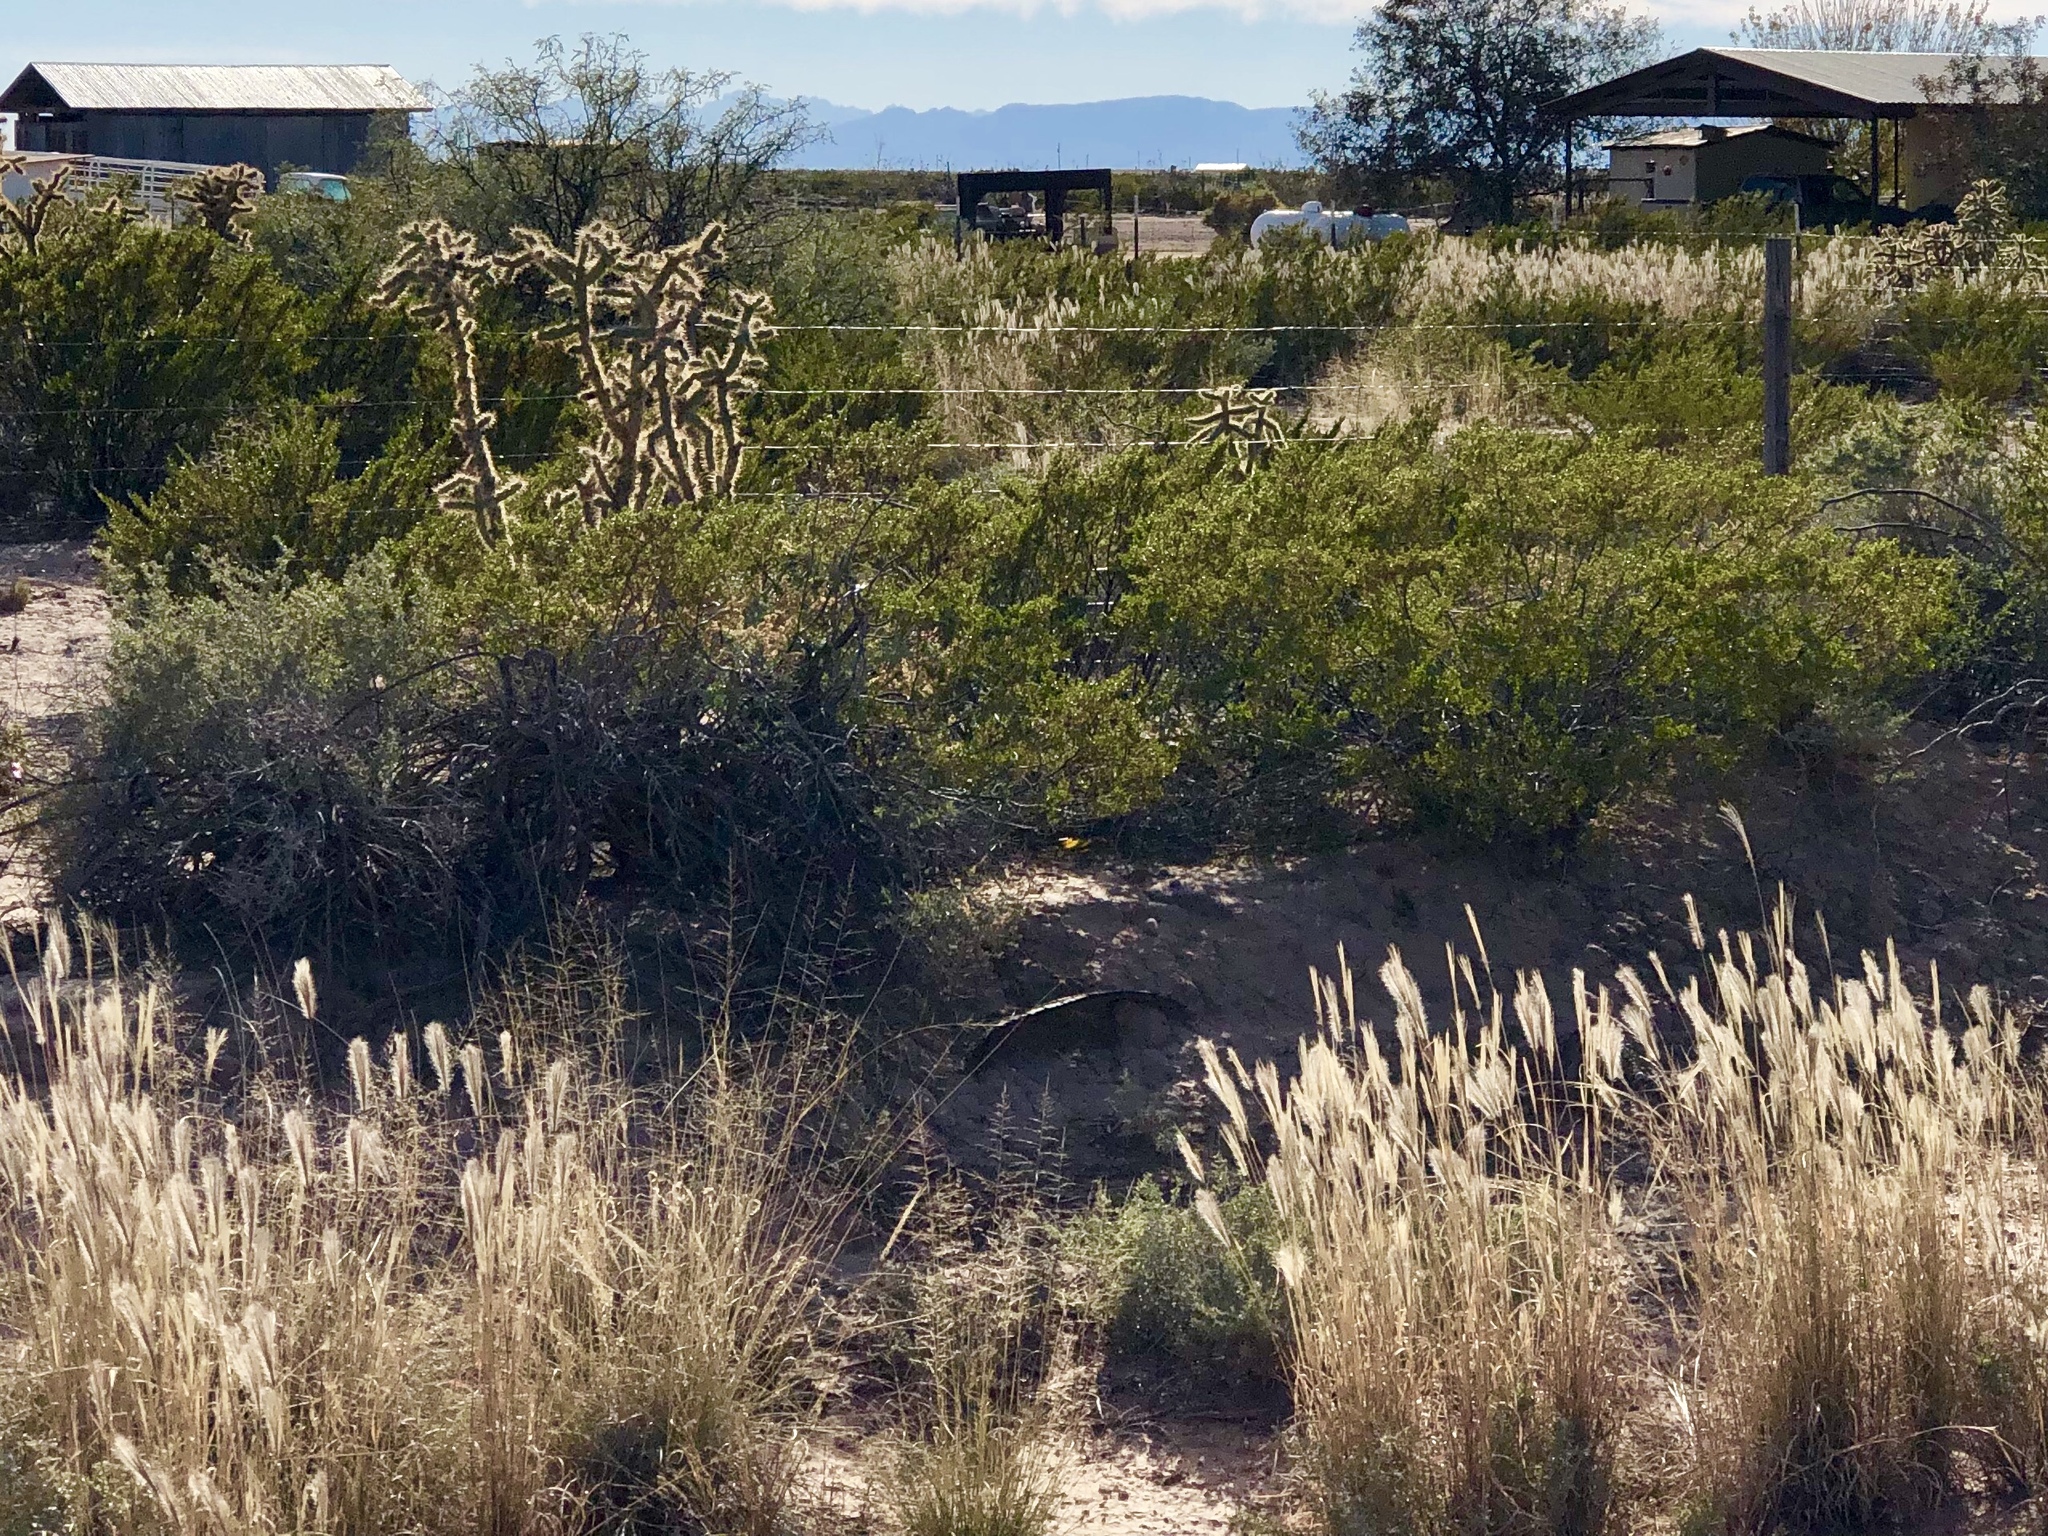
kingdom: Plantae
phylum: Tracheophyta
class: Magnoliopsida
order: Zygophyllales
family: Zygophyllaceae
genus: Larrea
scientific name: Larrea tridentata
